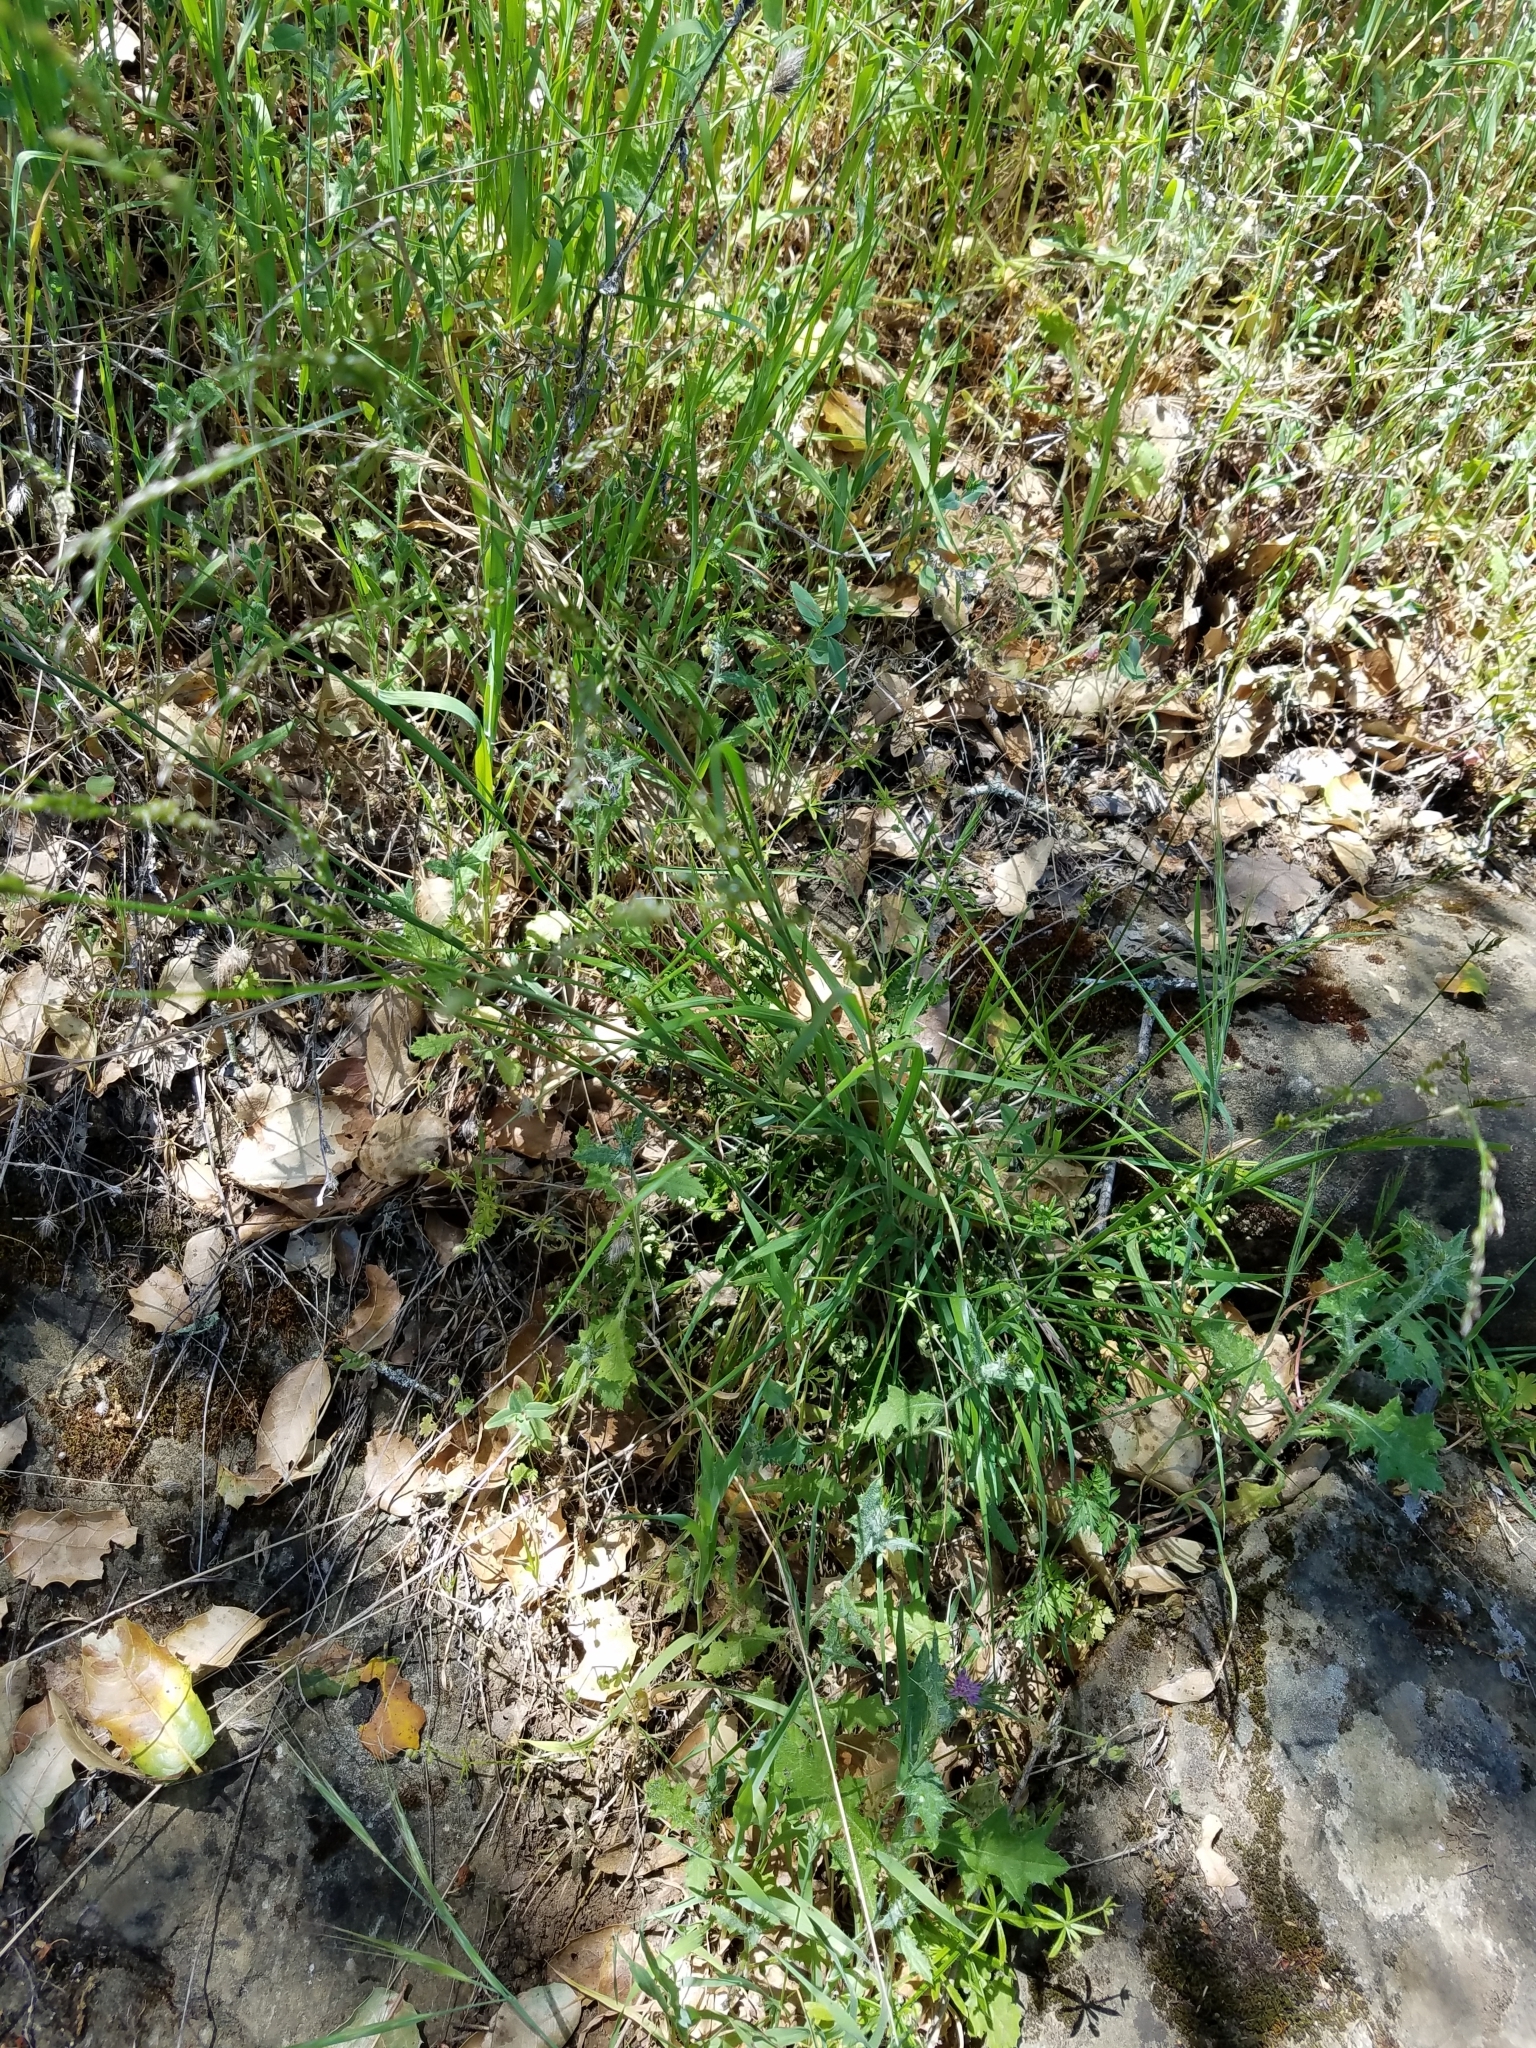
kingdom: Plantae
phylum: Tracheophyta
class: Liliopsida
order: Poales
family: Poaceae
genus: Melica
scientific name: Melica imperfecta
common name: California melic
